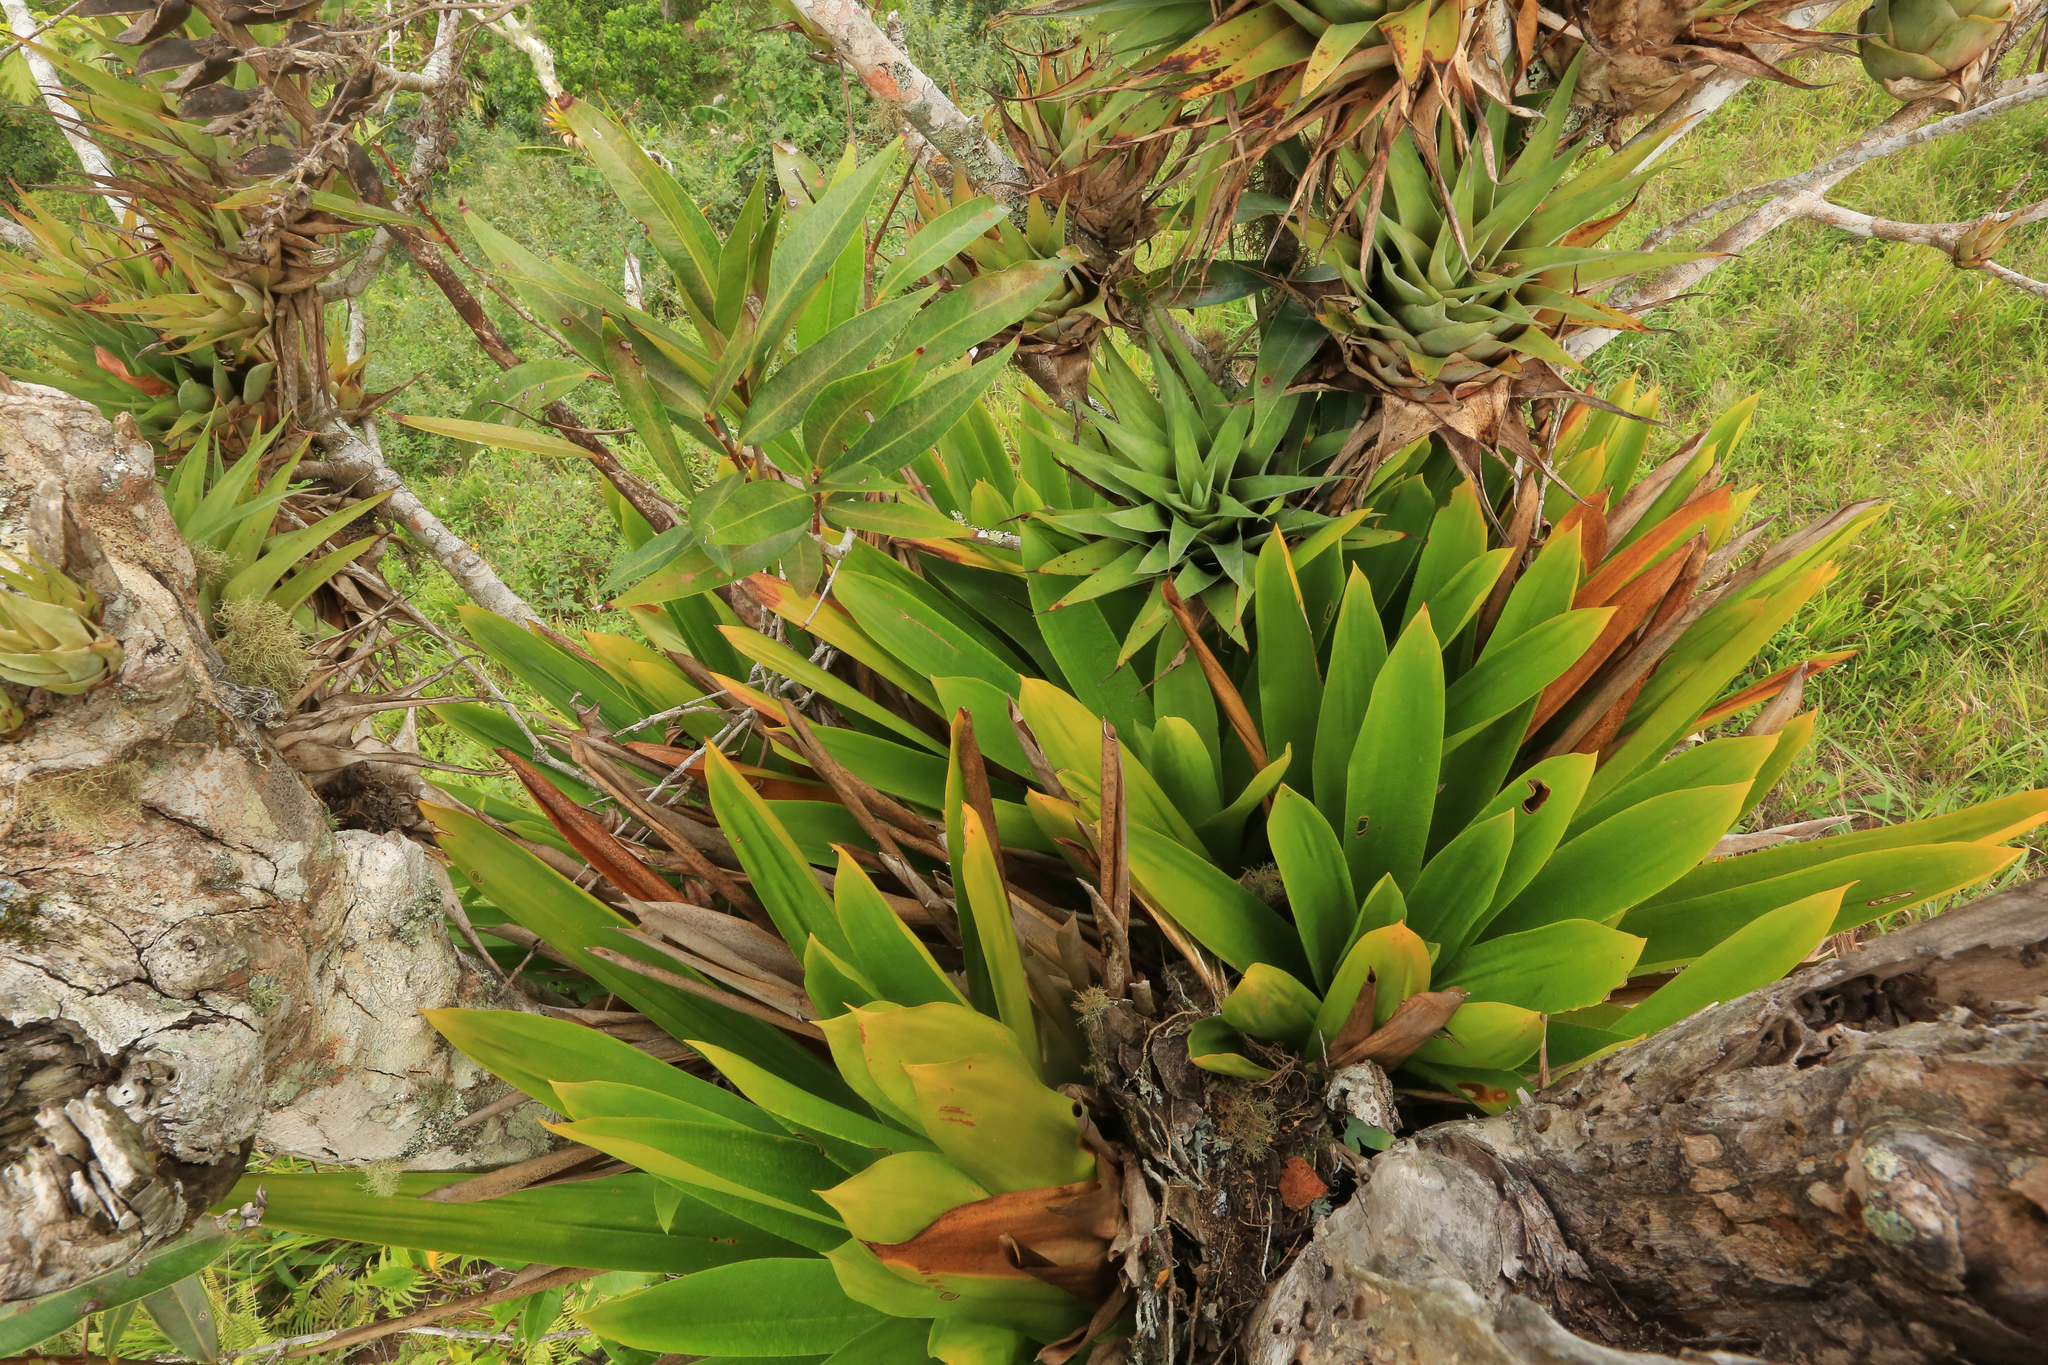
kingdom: Plantae
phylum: Tracheophyta
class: Liliopsida
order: Poales
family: Bromeliaceae
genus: Catopsis
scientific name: Catopsis floribunda
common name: Florida strap airplant
